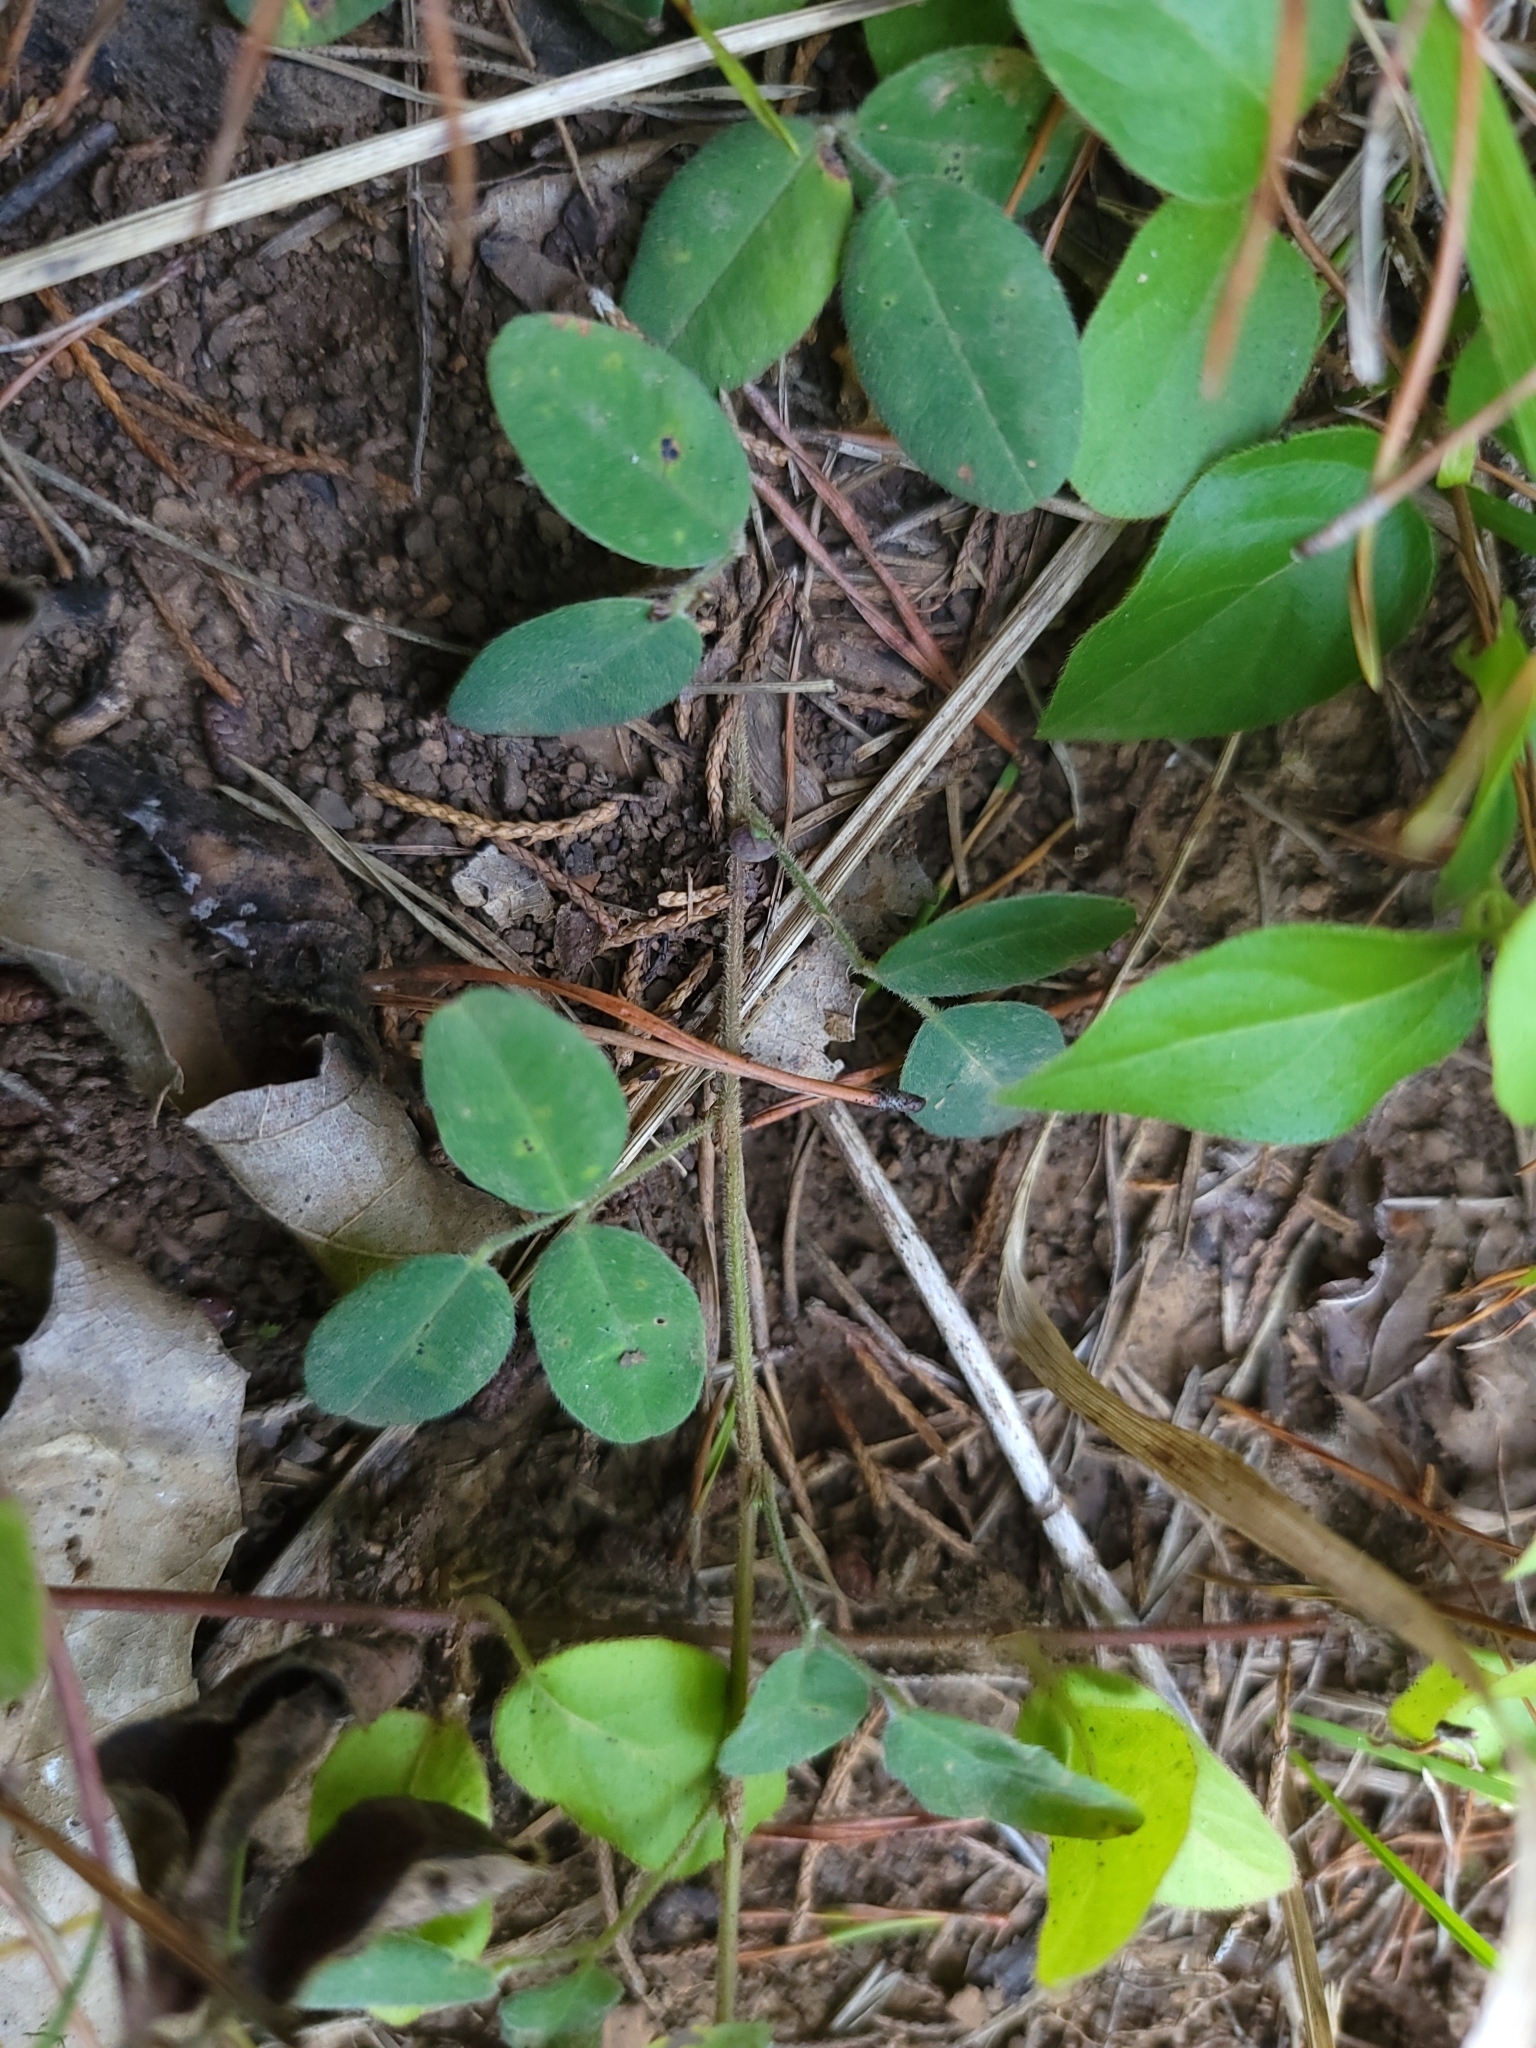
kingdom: Plantae
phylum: Tracheophyta
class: Magnoliopsida
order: Fabales
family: Fabaceae
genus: Lespedeza
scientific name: Lespedeza procumbens
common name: Downy trailing bush-clover
